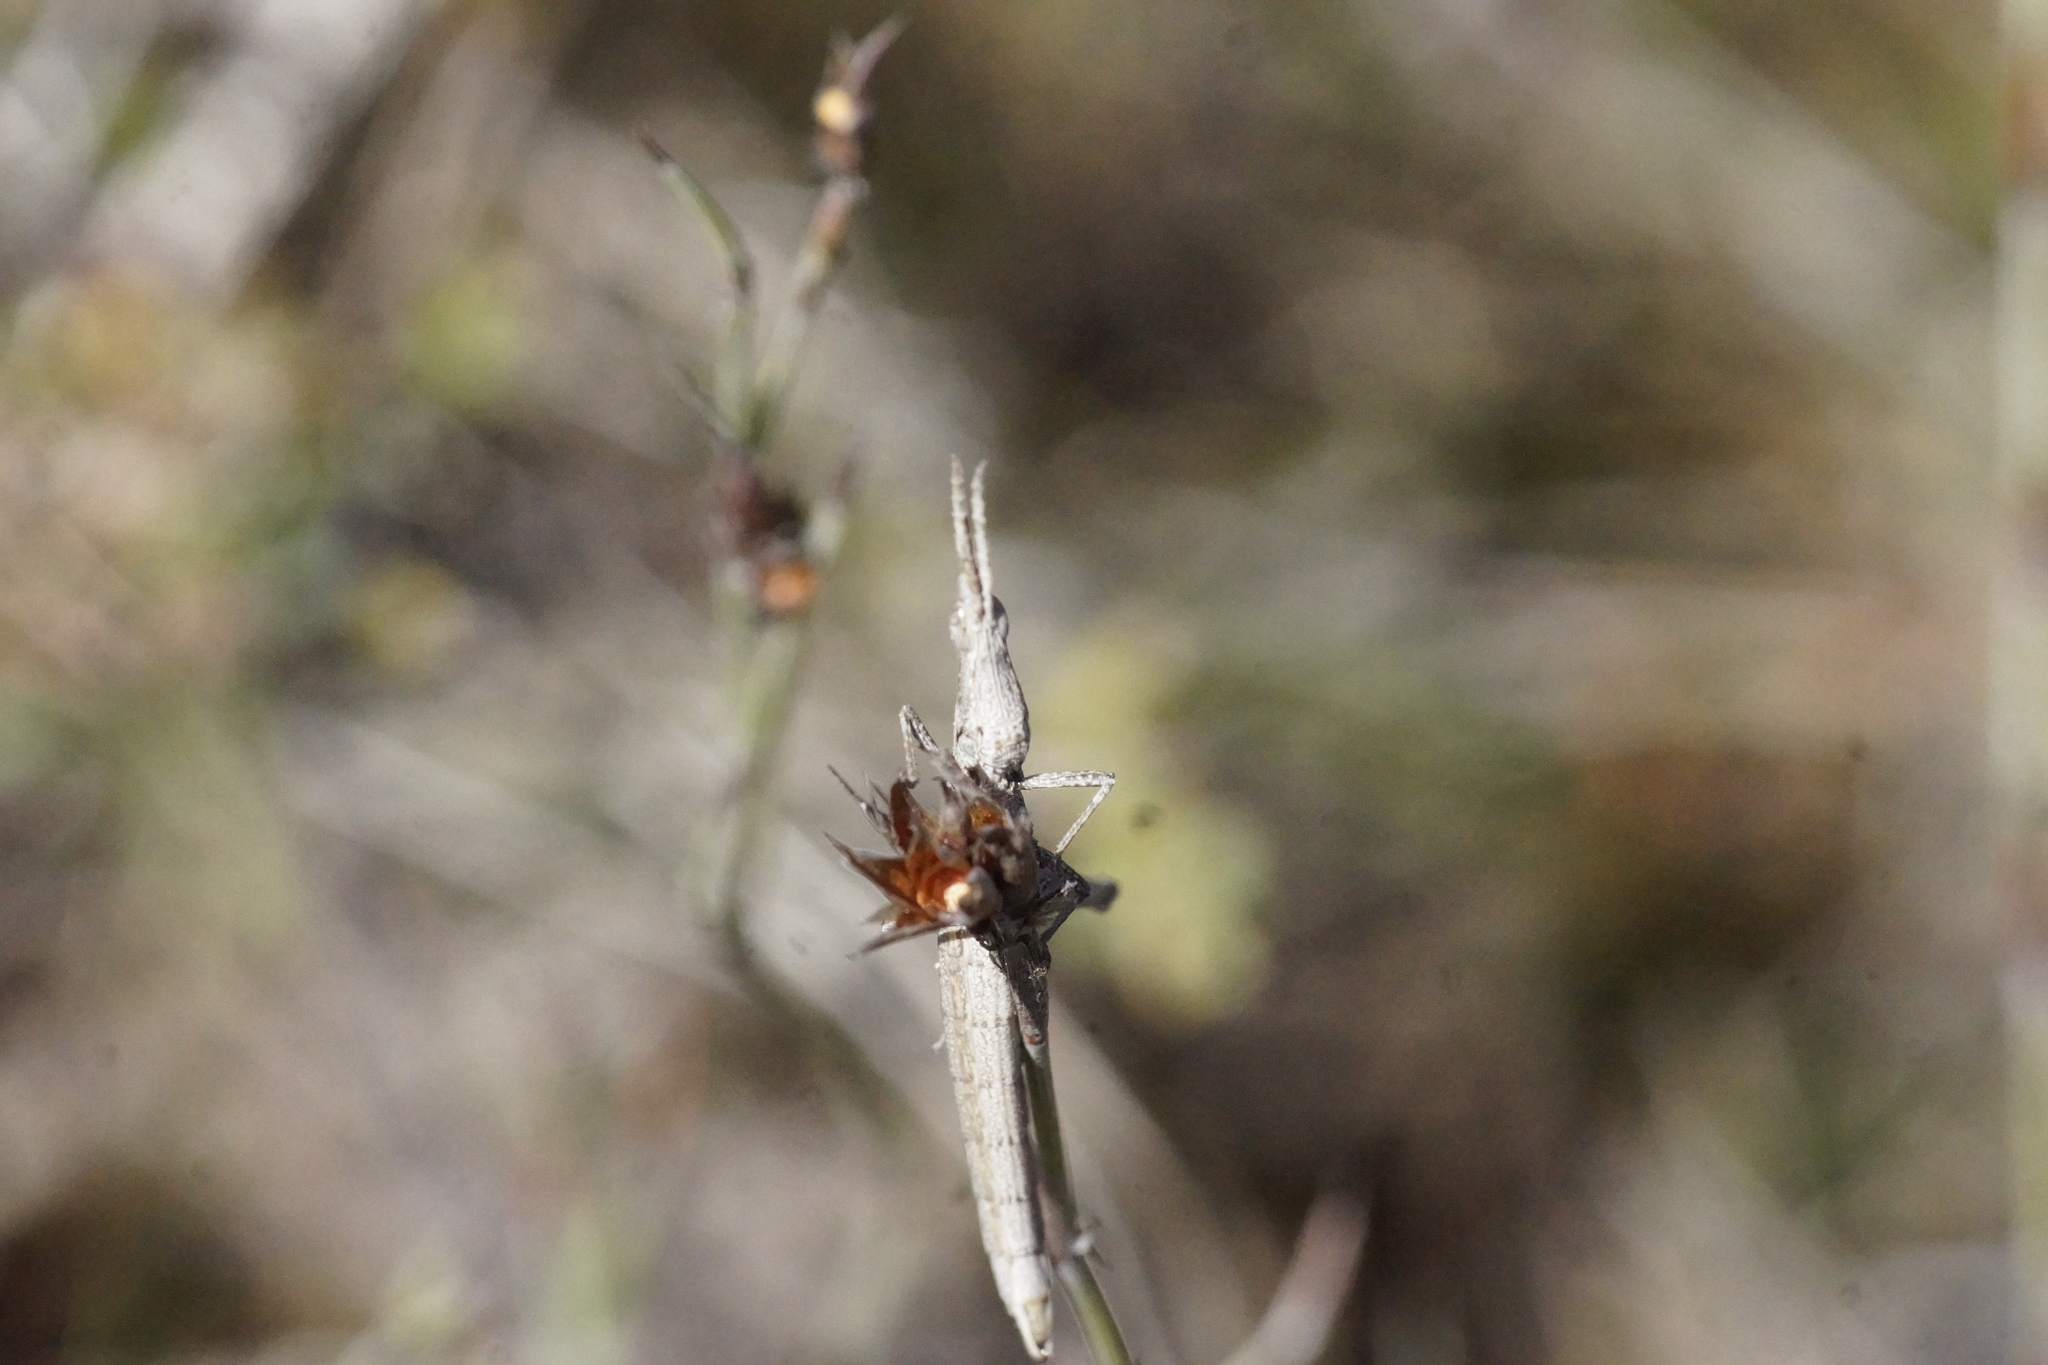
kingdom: Animalia
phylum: Arthropoda
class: Insecta
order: Orthoptera
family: Morabidae
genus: Vandiemenella
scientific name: Vandiemenella viatica
